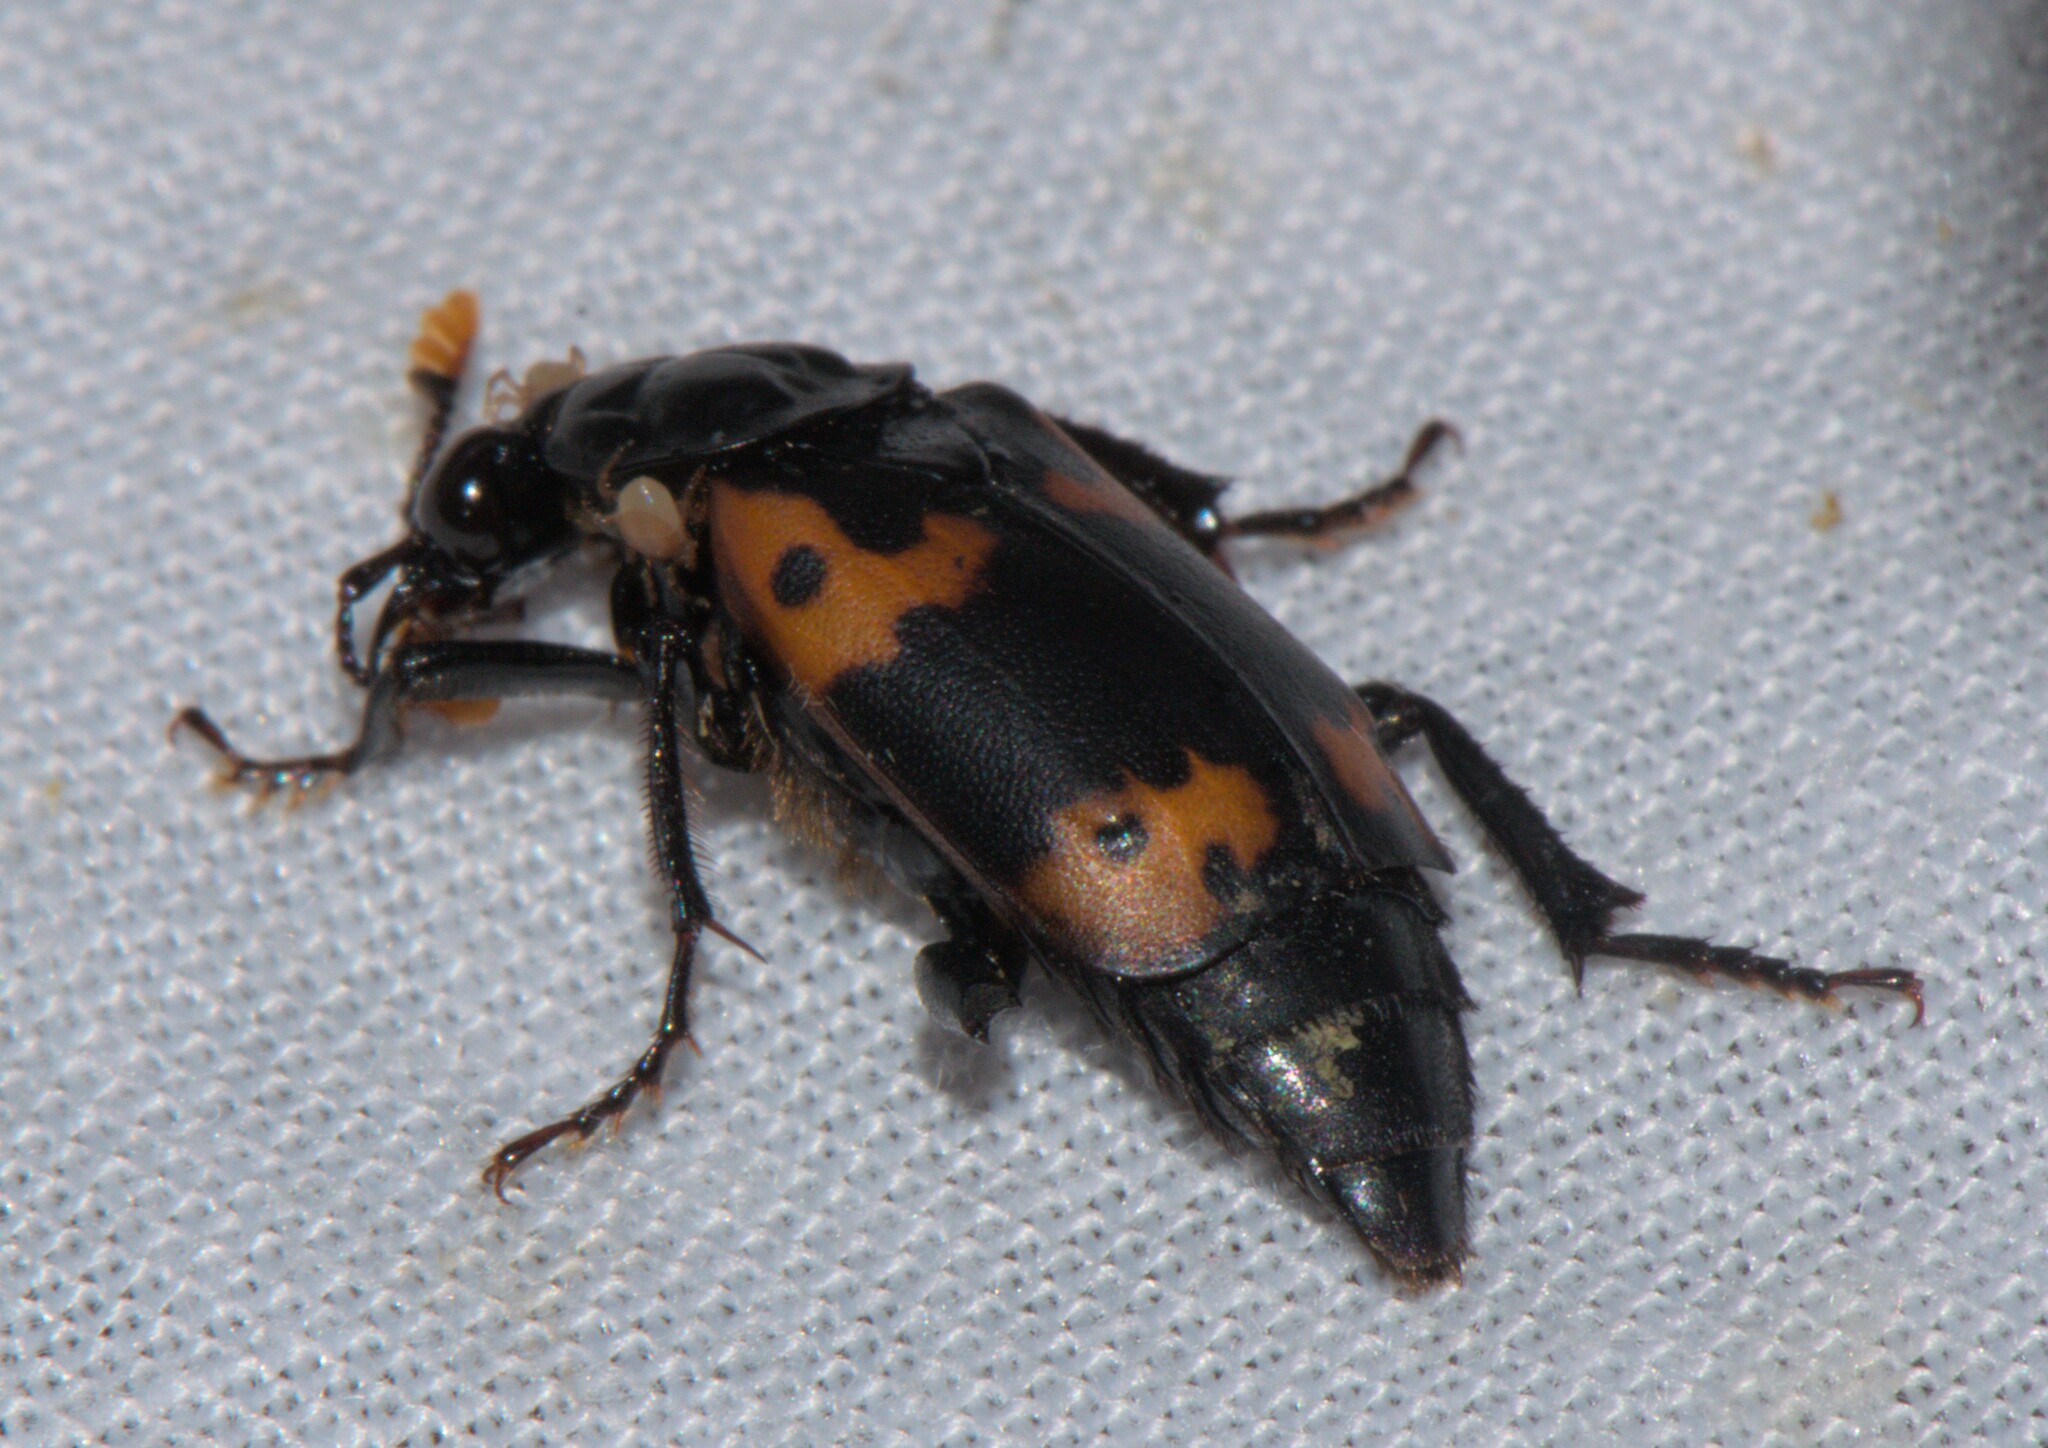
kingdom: Animalia
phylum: Arthropoda
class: Insecta
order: Coleoptera
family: Staphylinidae
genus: Nicrophorus
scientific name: Nicrophorus nepalensis
